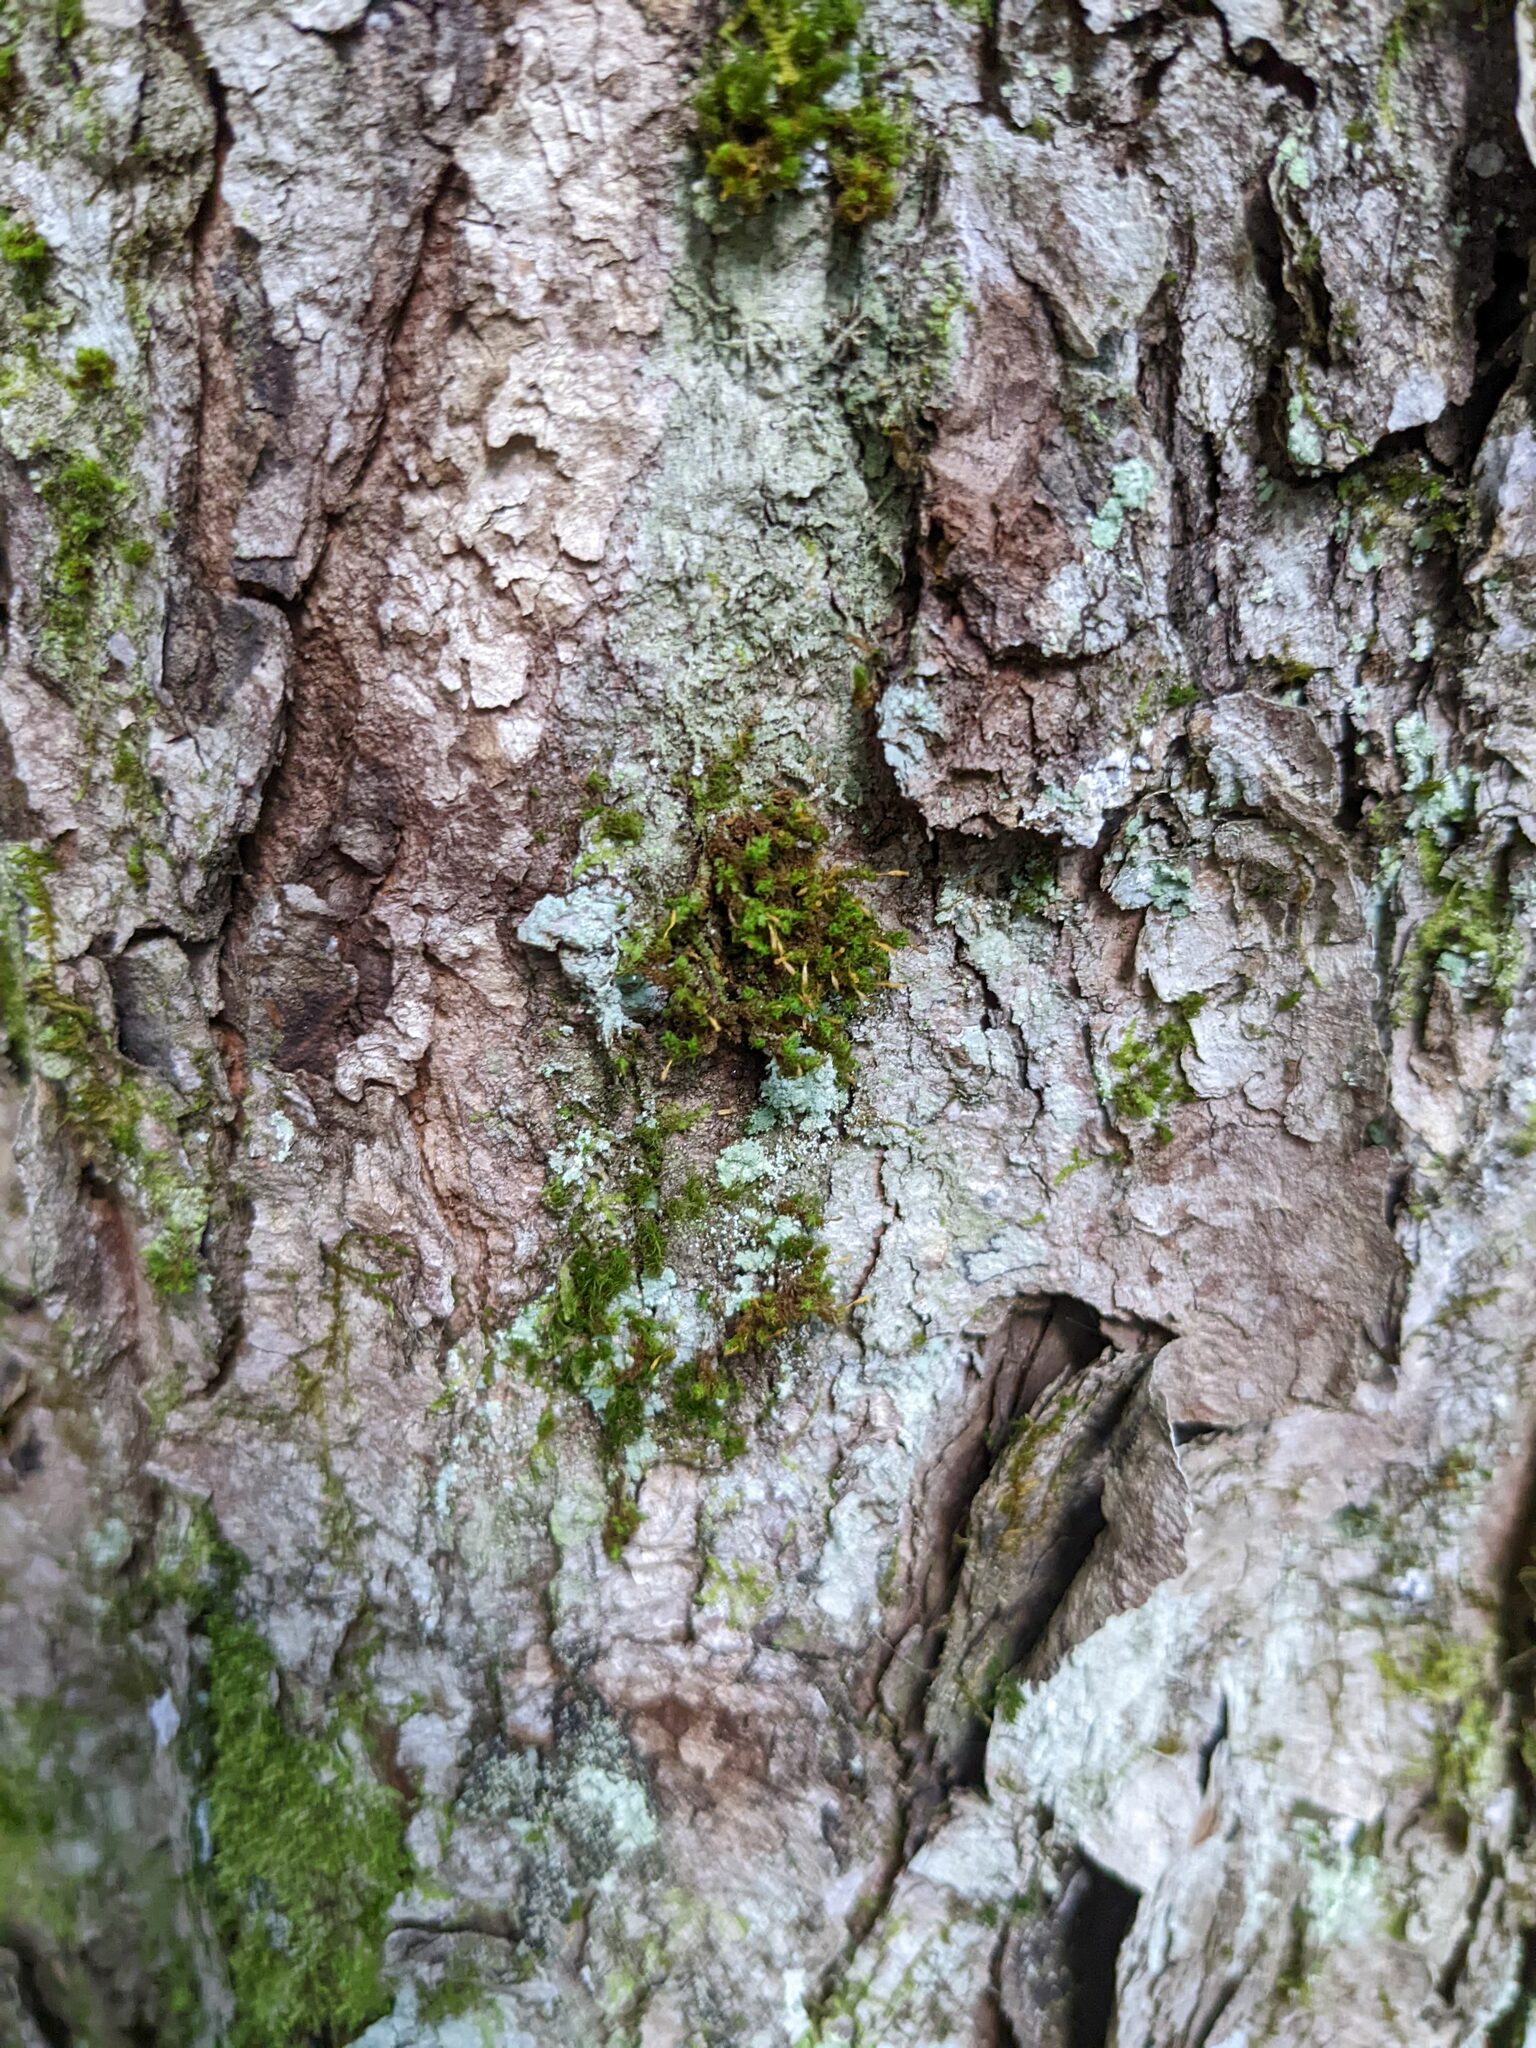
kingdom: Plantae
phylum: Bryophyta
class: Bryopsida
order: Orthotrichales
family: Orthotrichaceae
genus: Ulota
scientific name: Ulota crispa
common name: Crisped pincushion moss
